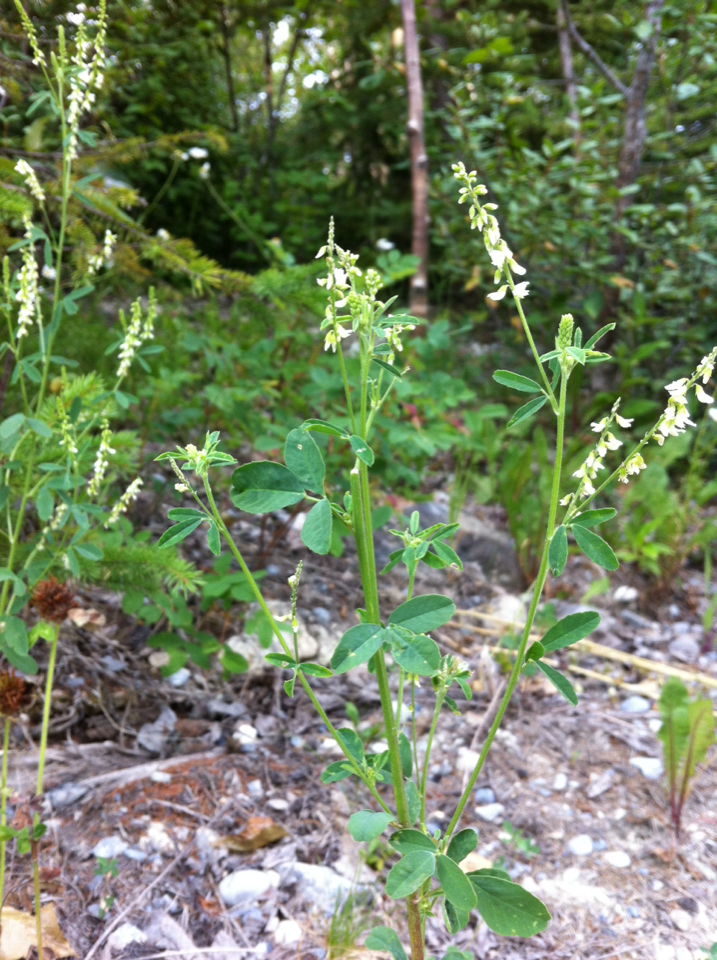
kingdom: Plantae
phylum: Tracheophyta
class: Magnoliopsida
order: Fabales
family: Fabaceae
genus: Melilotus
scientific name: Melilotus albus
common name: White melilot
